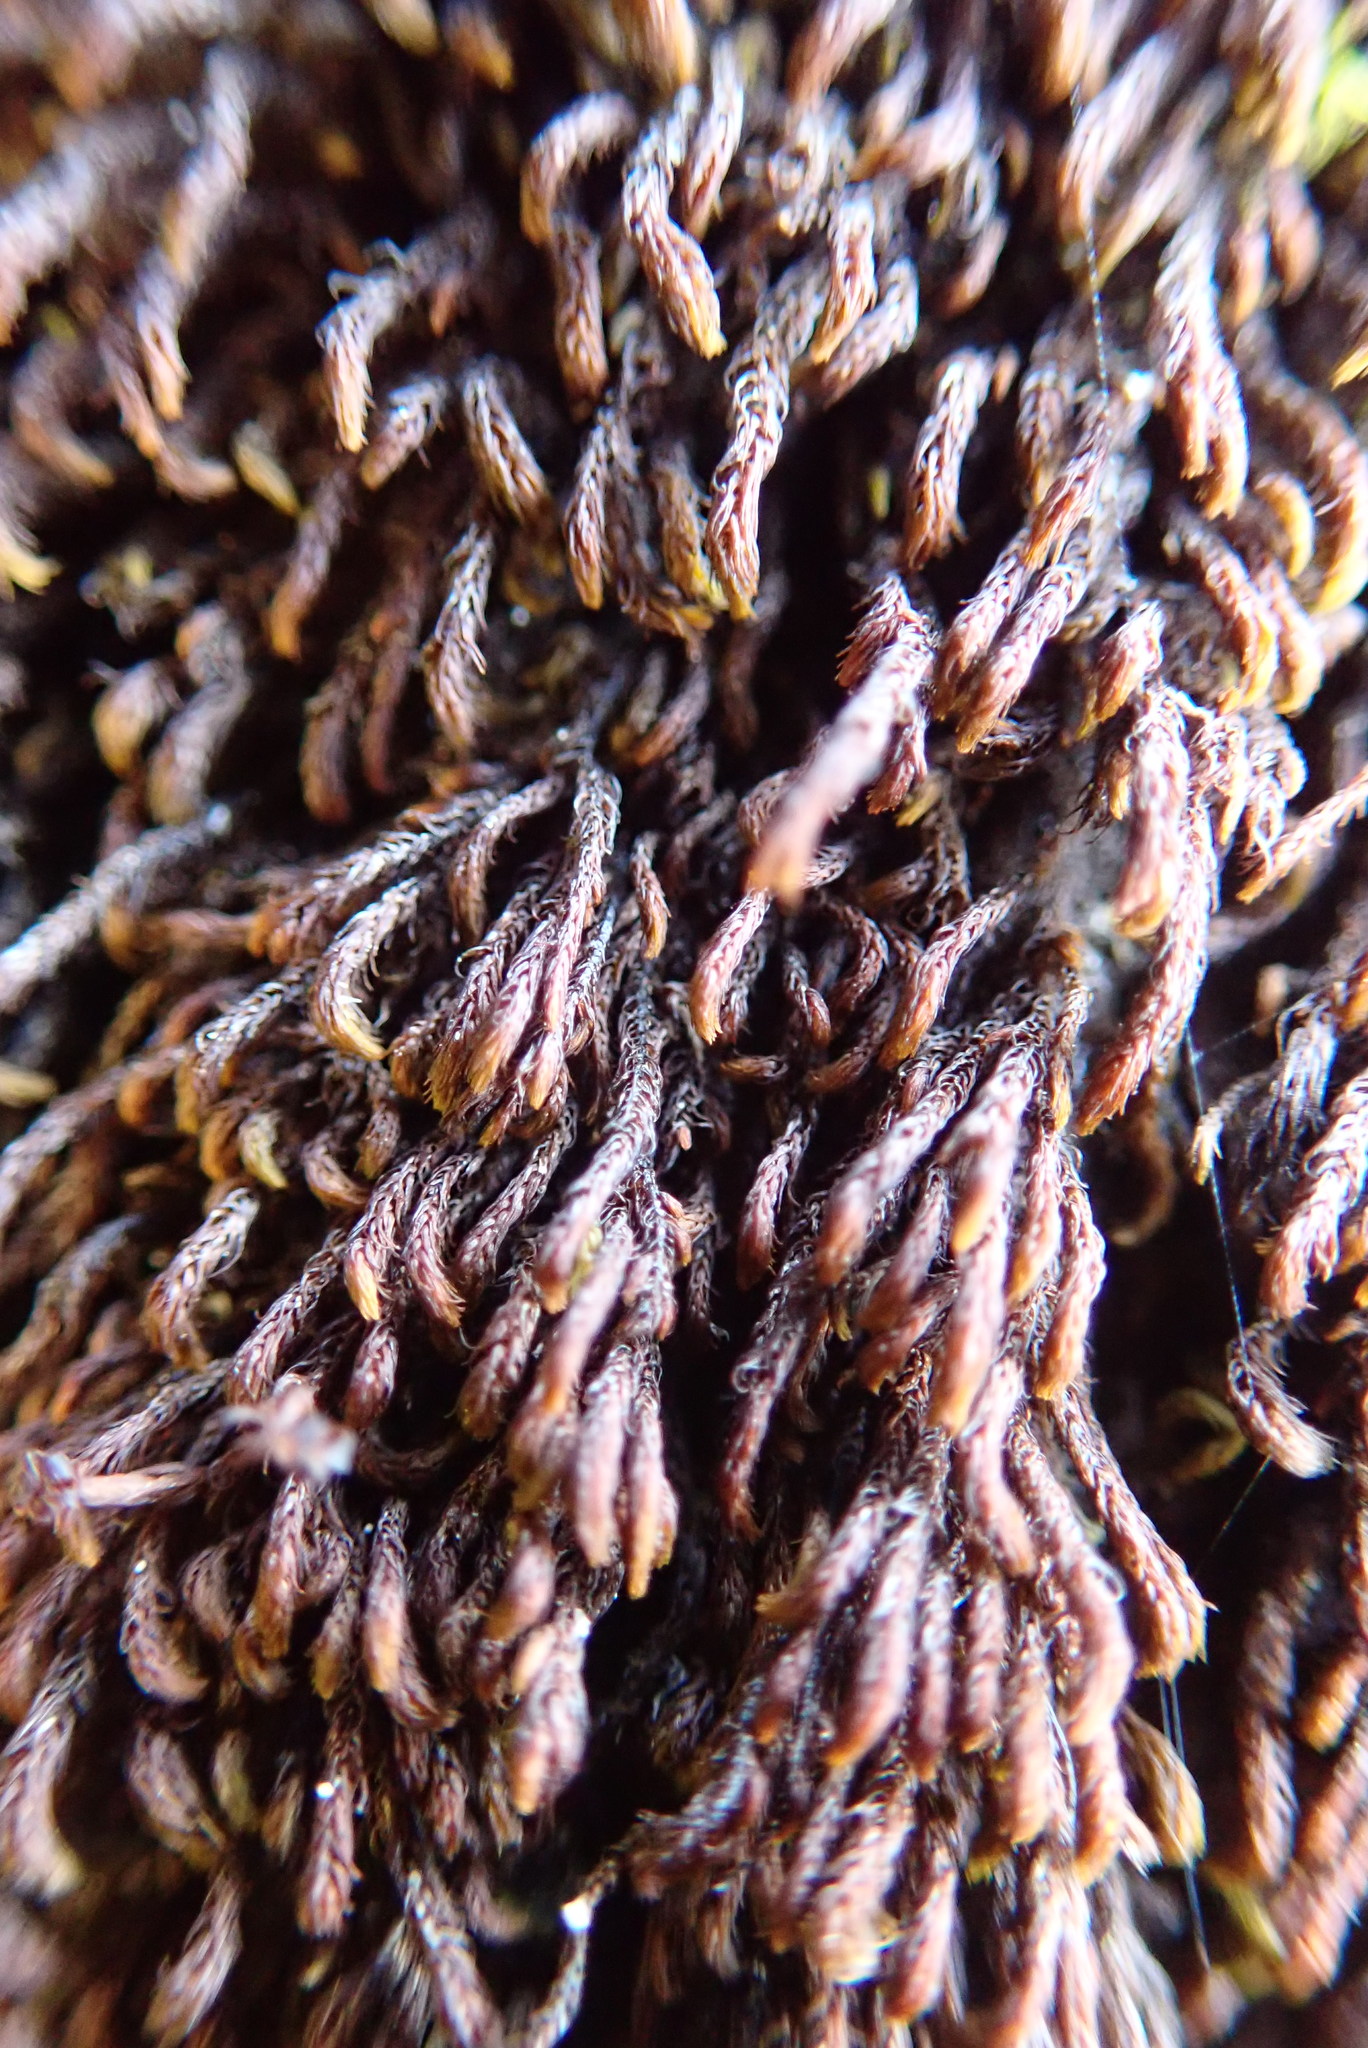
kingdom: Plantae
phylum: Bryophyta
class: Andreaeopsida
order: Andreaeales
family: Andreaeaceae
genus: Andreaea
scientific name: Andreaea nivalis
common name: Snow rock moss
